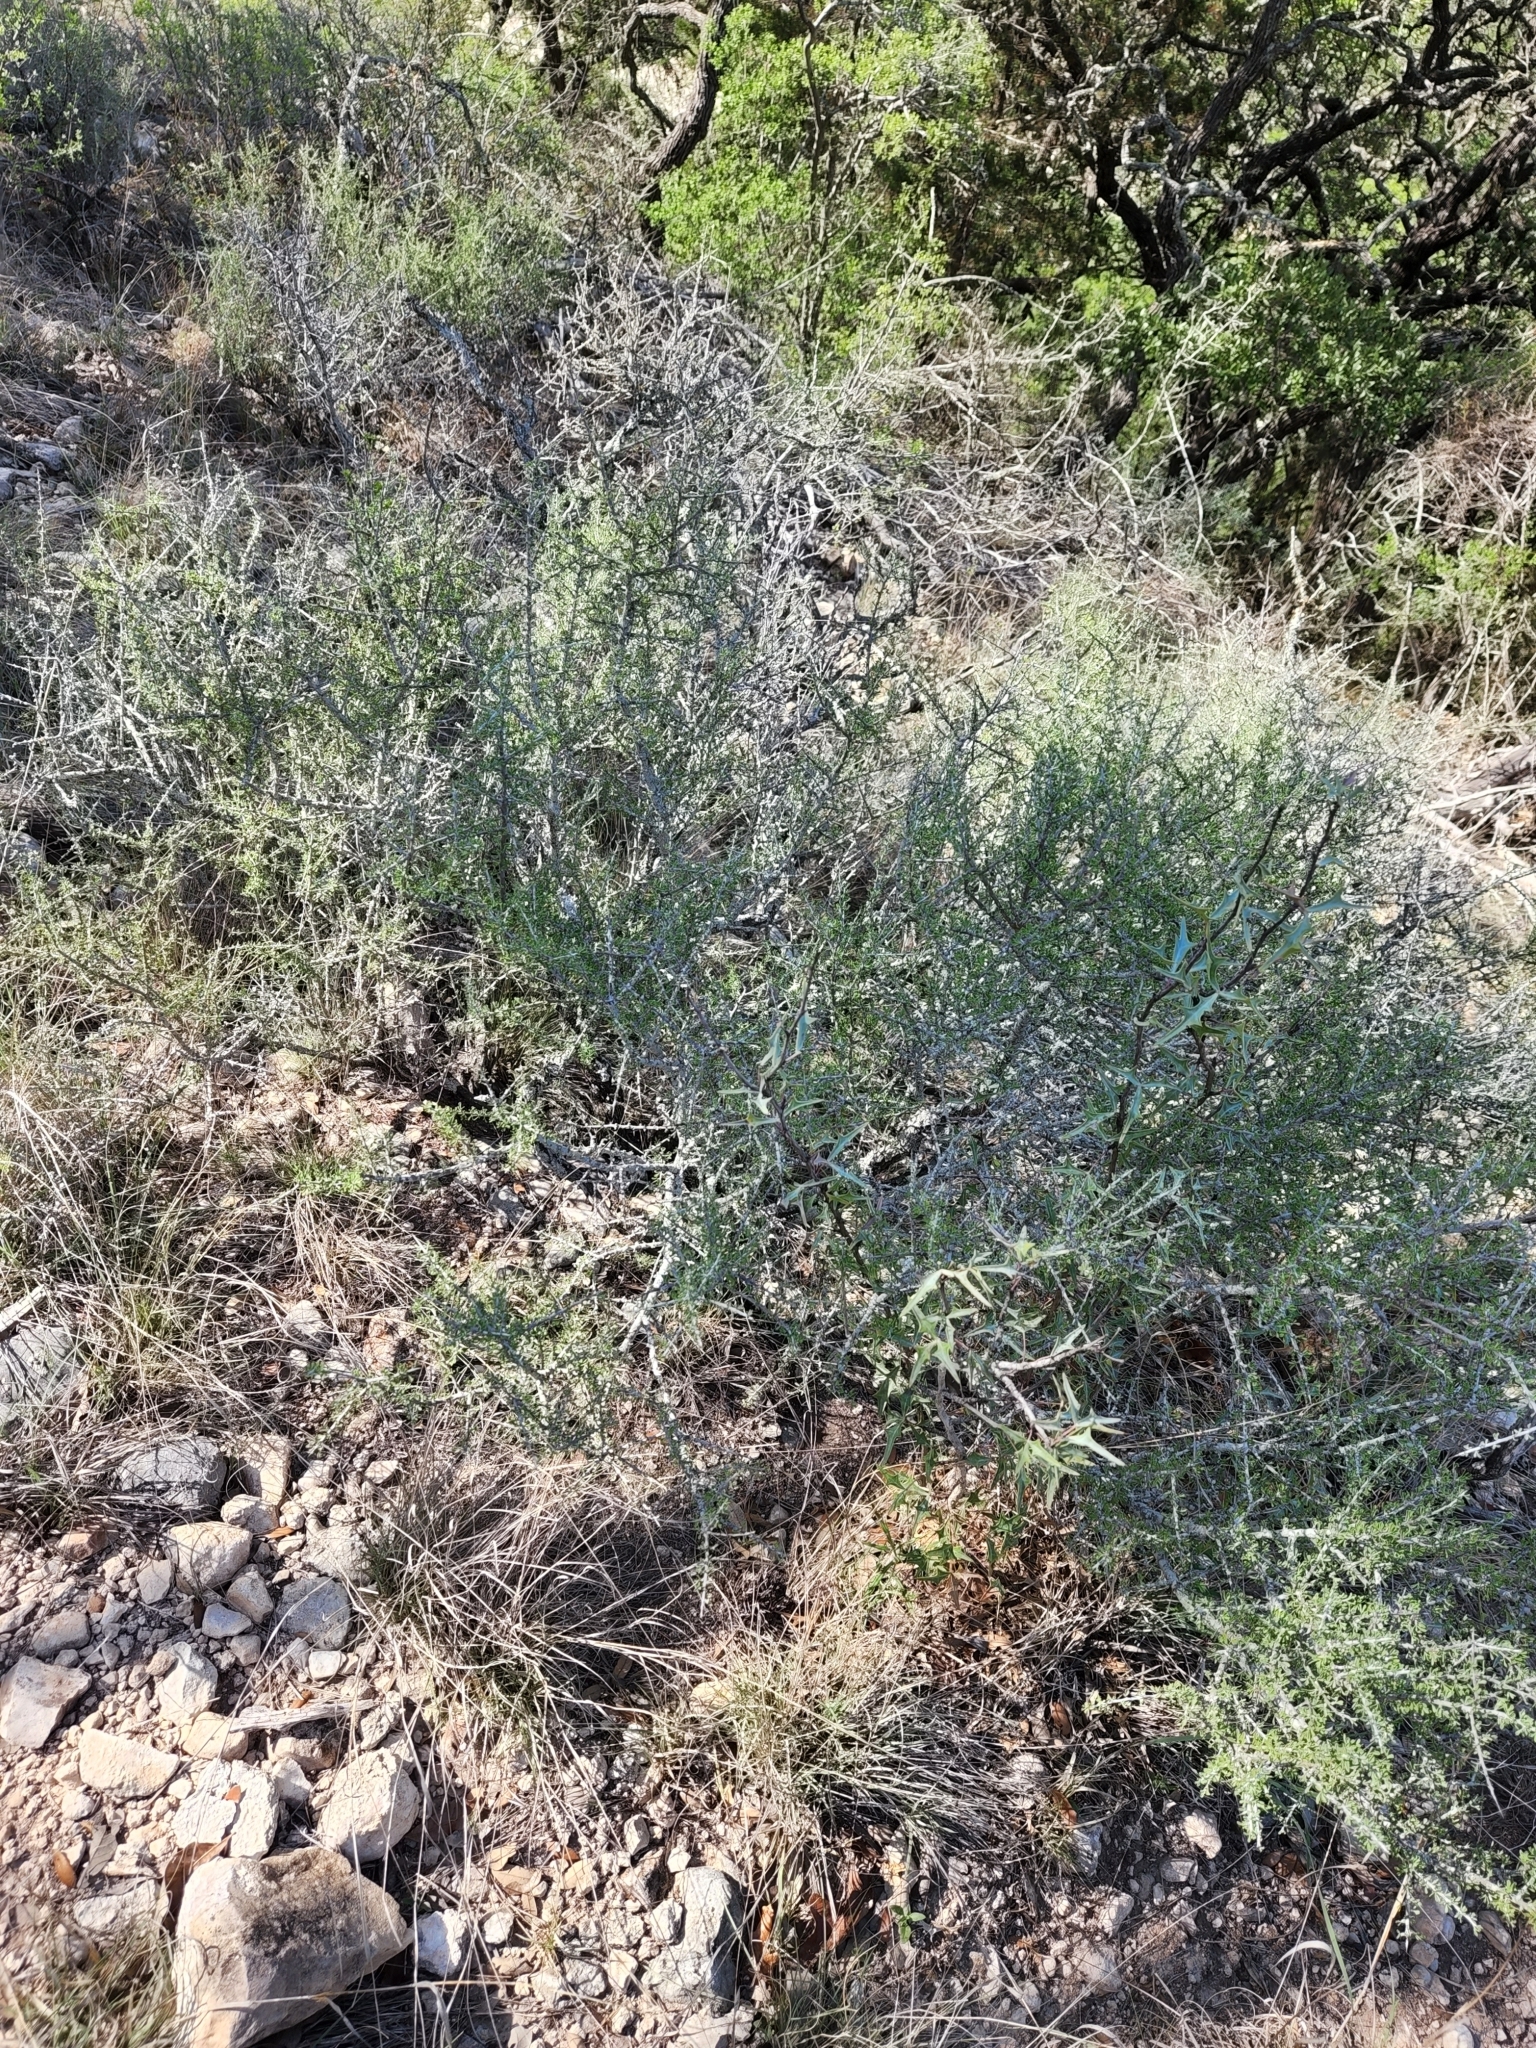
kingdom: Plantae
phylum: Tracheophyta
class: Magnoliopsida
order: Rosales
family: Rhamnaceae
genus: Condalia
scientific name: Condalia spathulata
